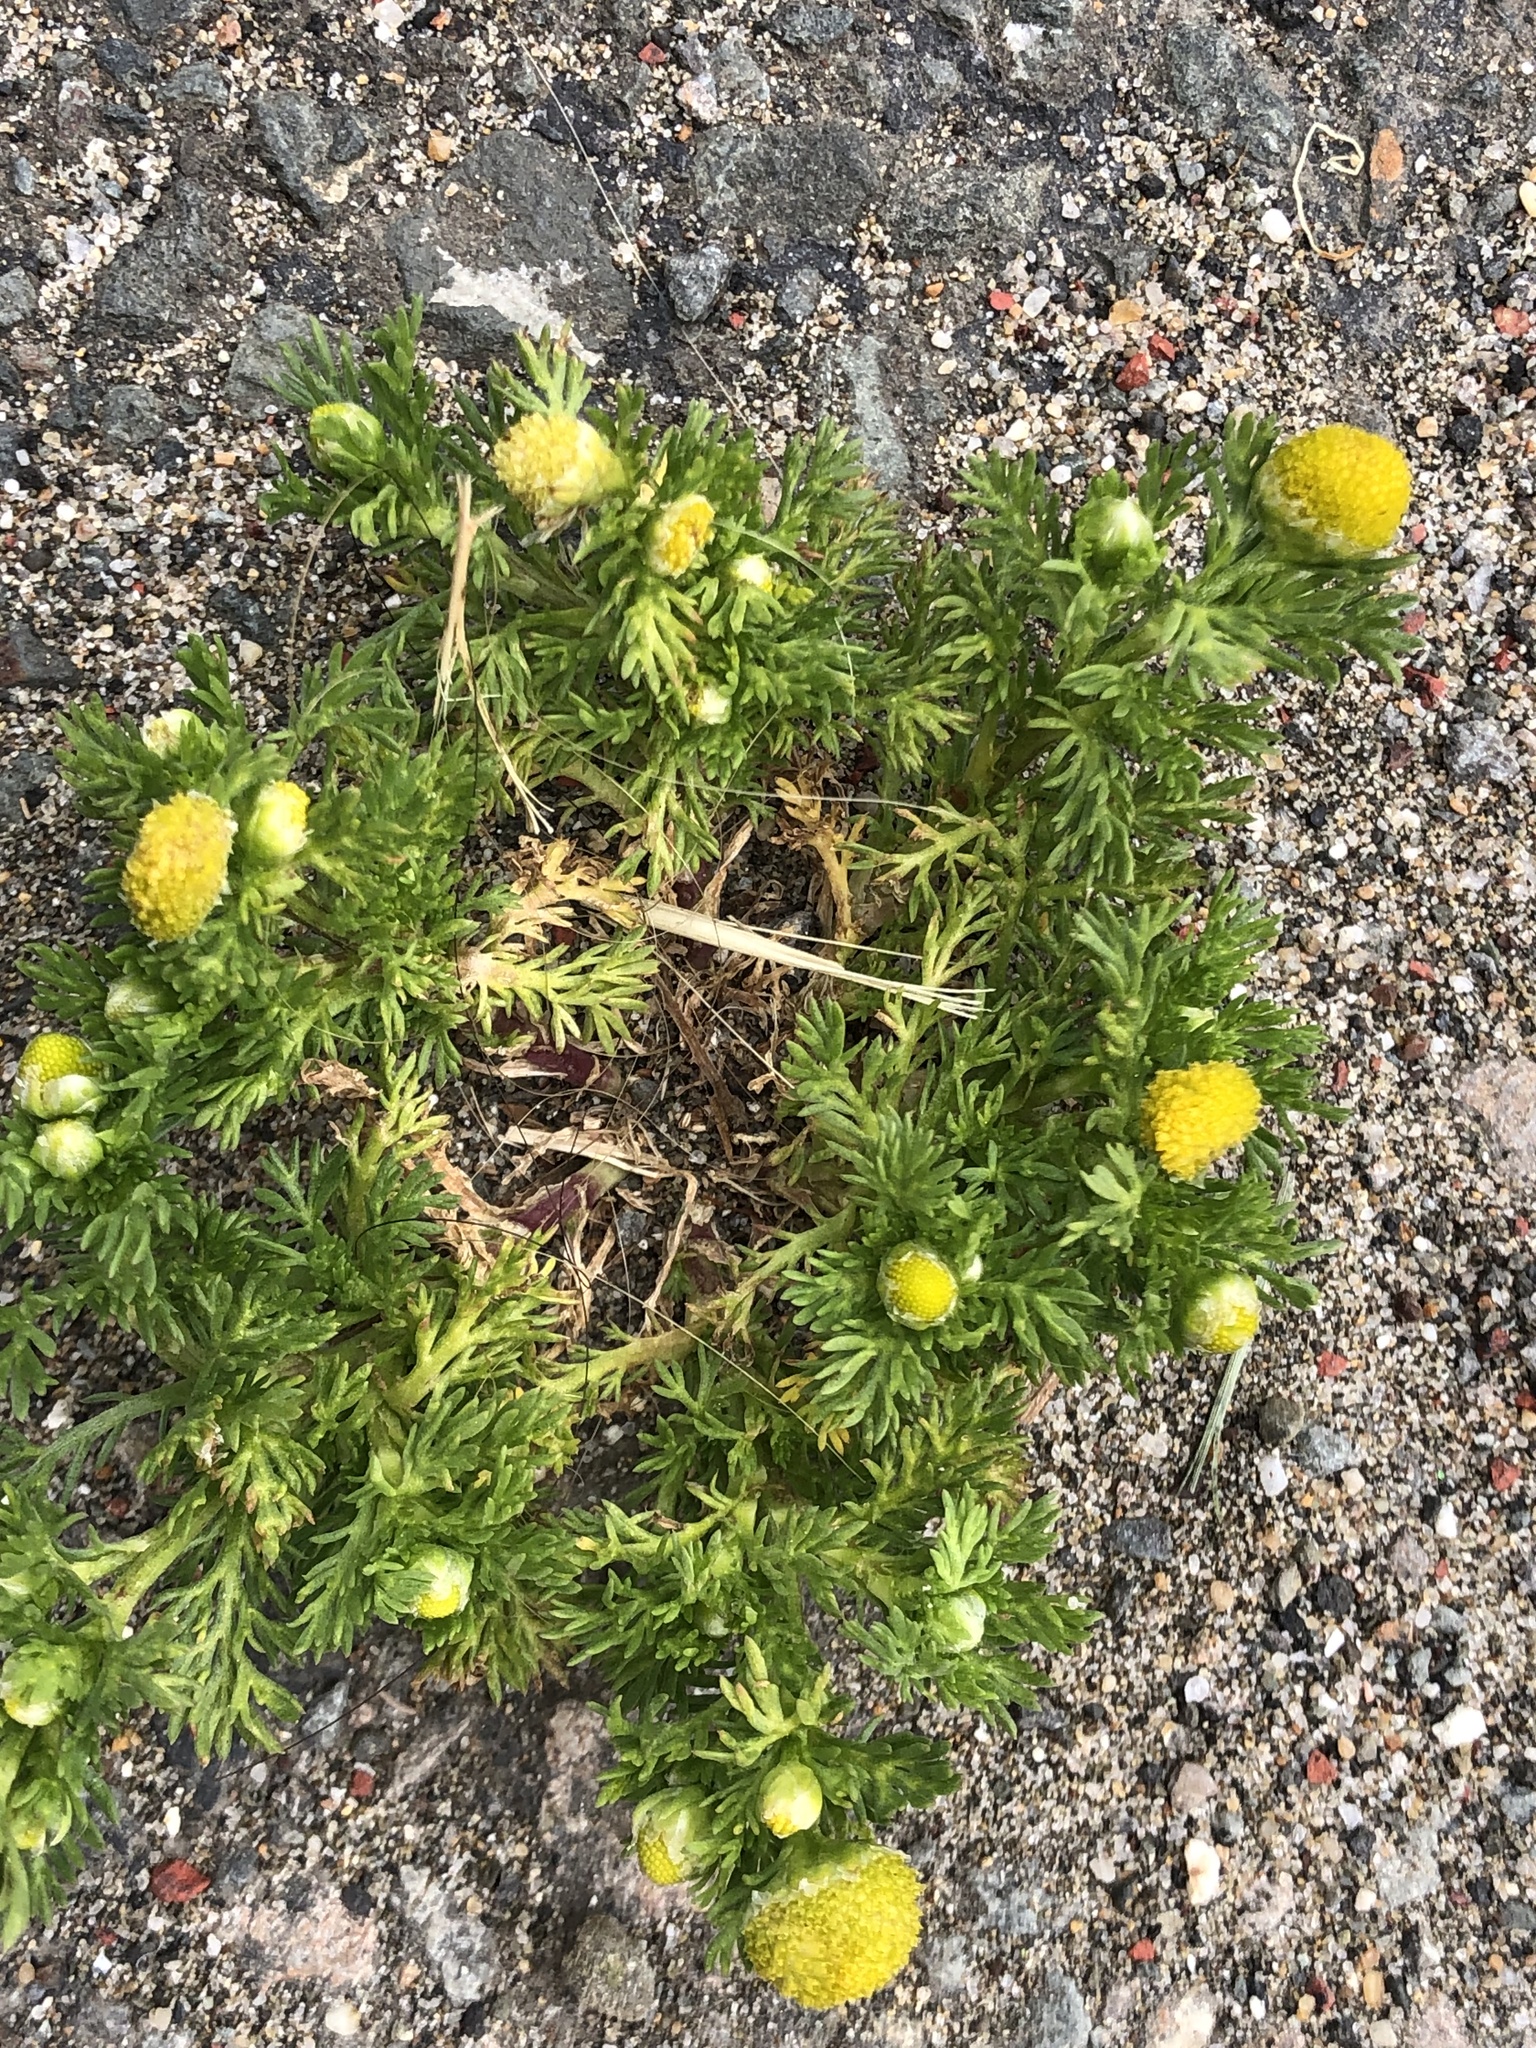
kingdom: Plantae
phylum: Tracheophyta
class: Magnoliopsida
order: Asterales
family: Asteraceae
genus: Matricaria
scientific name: Matricaria discoidea
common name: Disc mayweed
